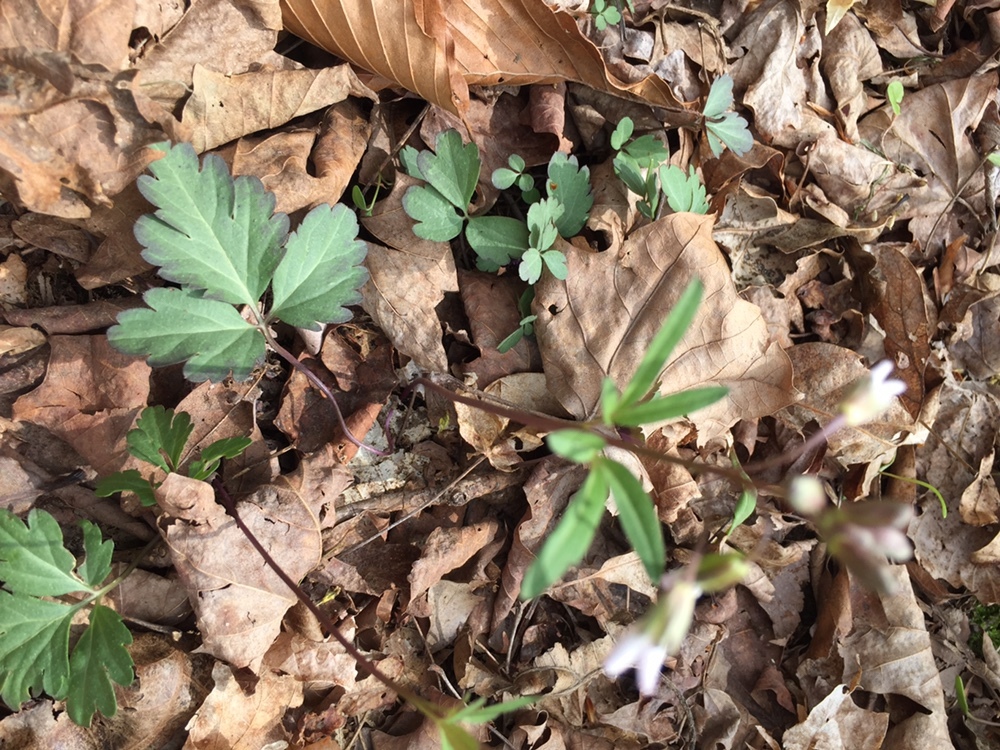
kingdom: Plantae
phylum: Tracheophyta
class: Magnoliopsida
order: Brassicales
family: Brassicaceae
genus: Cardamine
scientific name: Cardamine angustata
